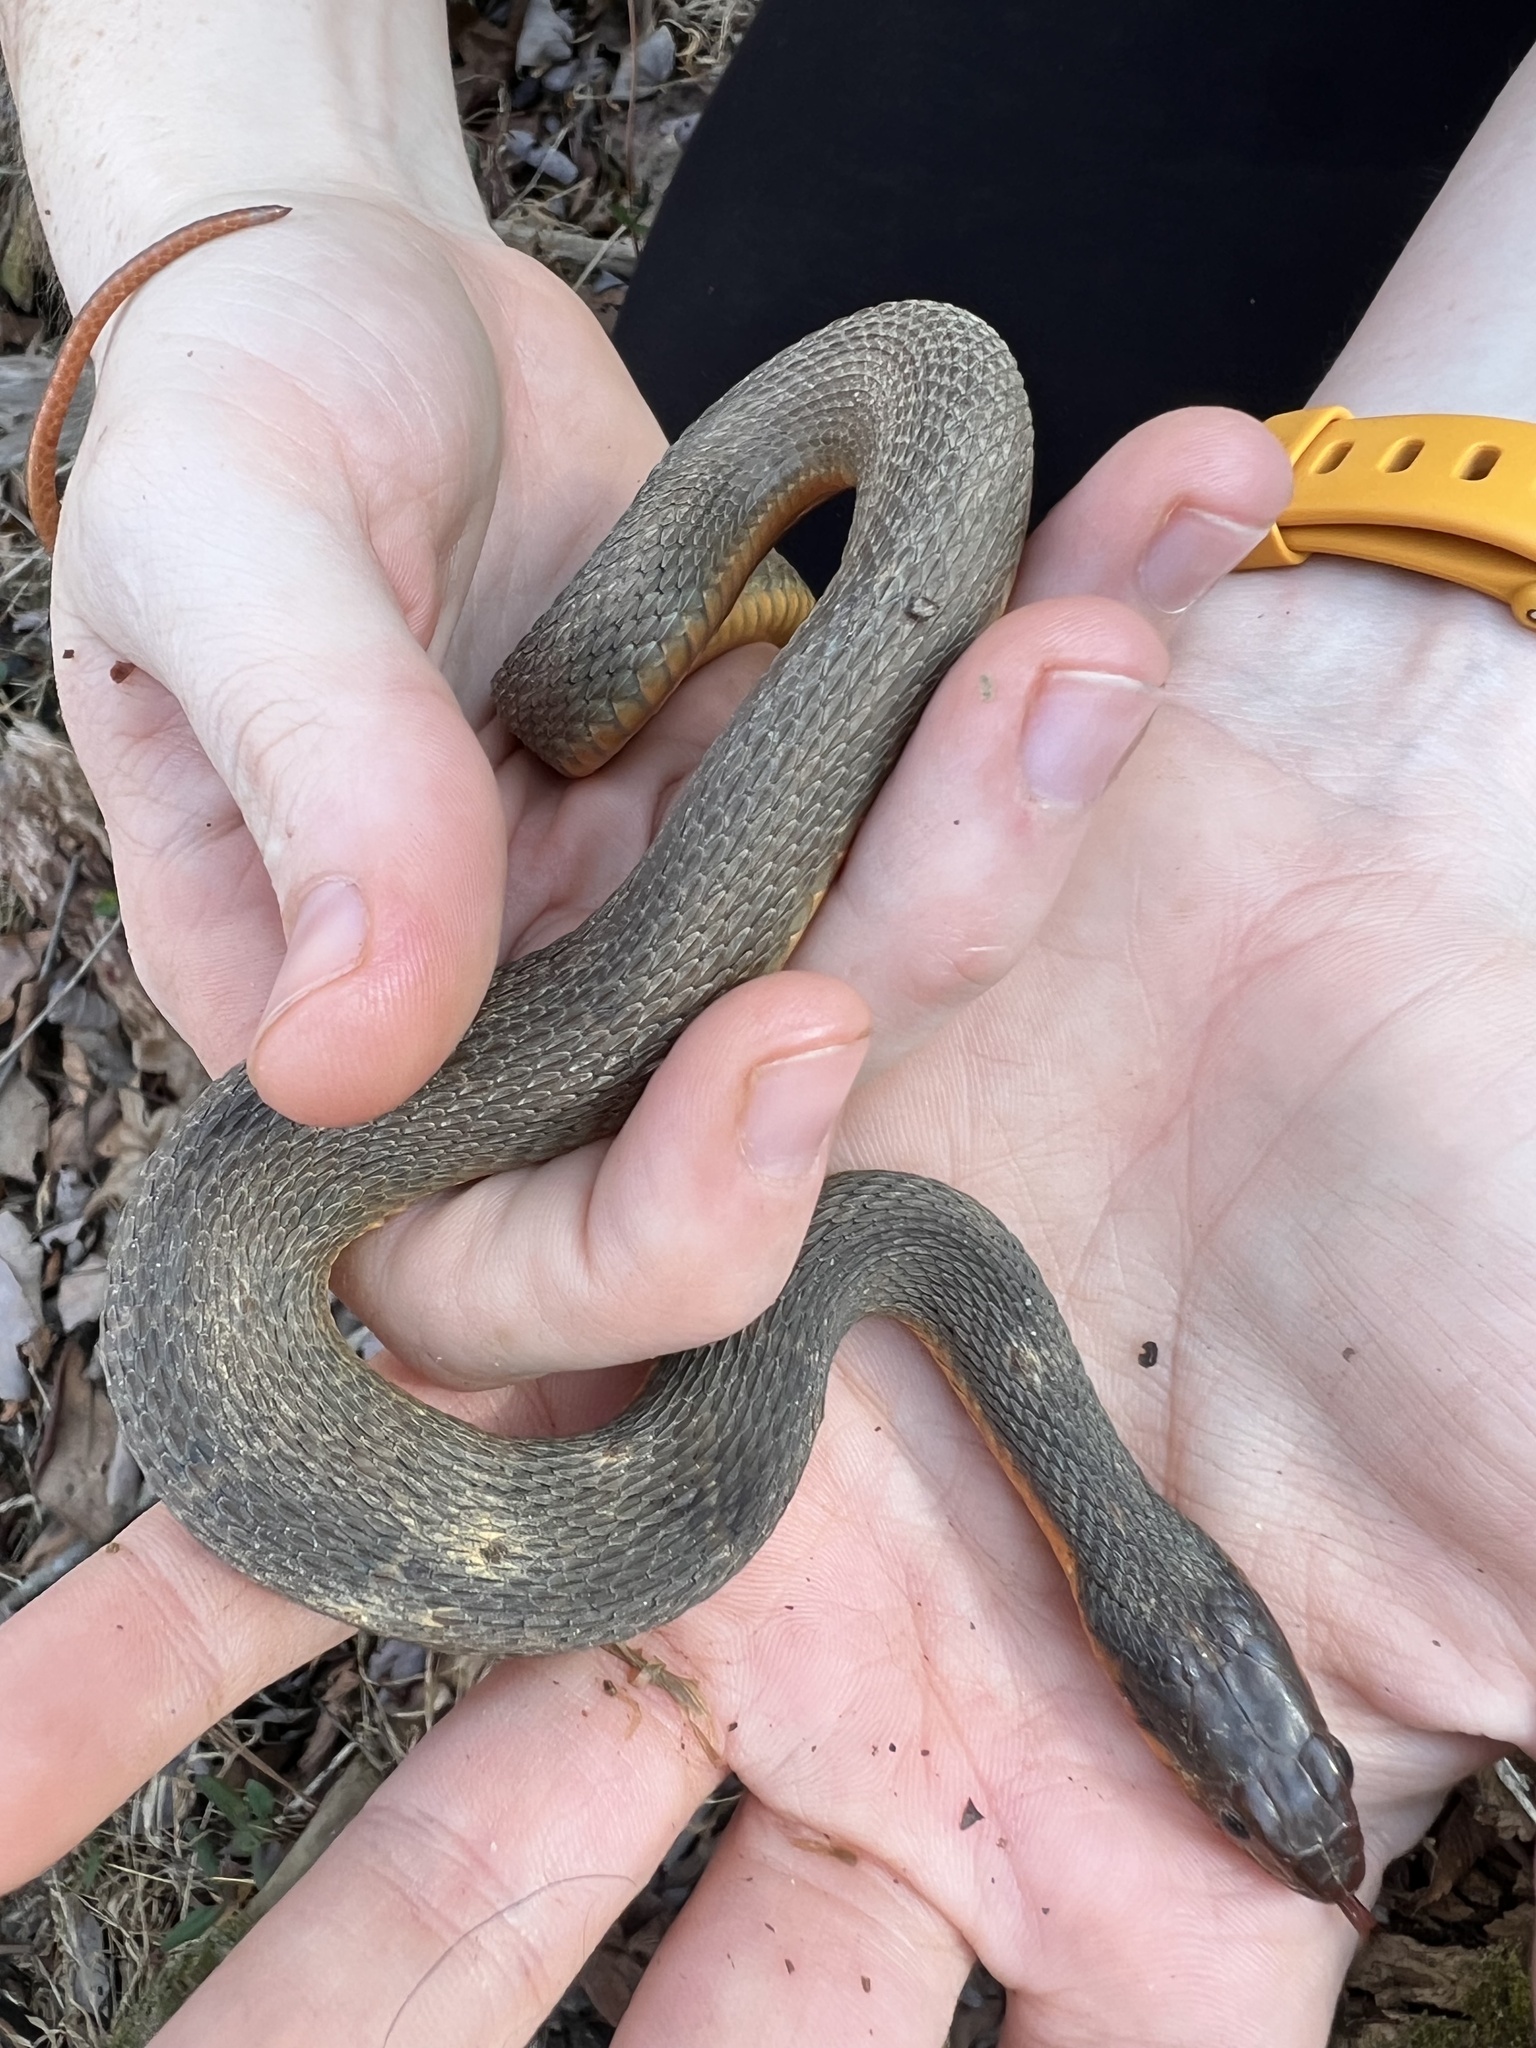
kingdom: Animalia
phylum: Chordata
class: Squamata
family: Colubridae
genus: Nerodia
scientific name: Nerodia erythrogaster
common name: Plainbelly water snake
